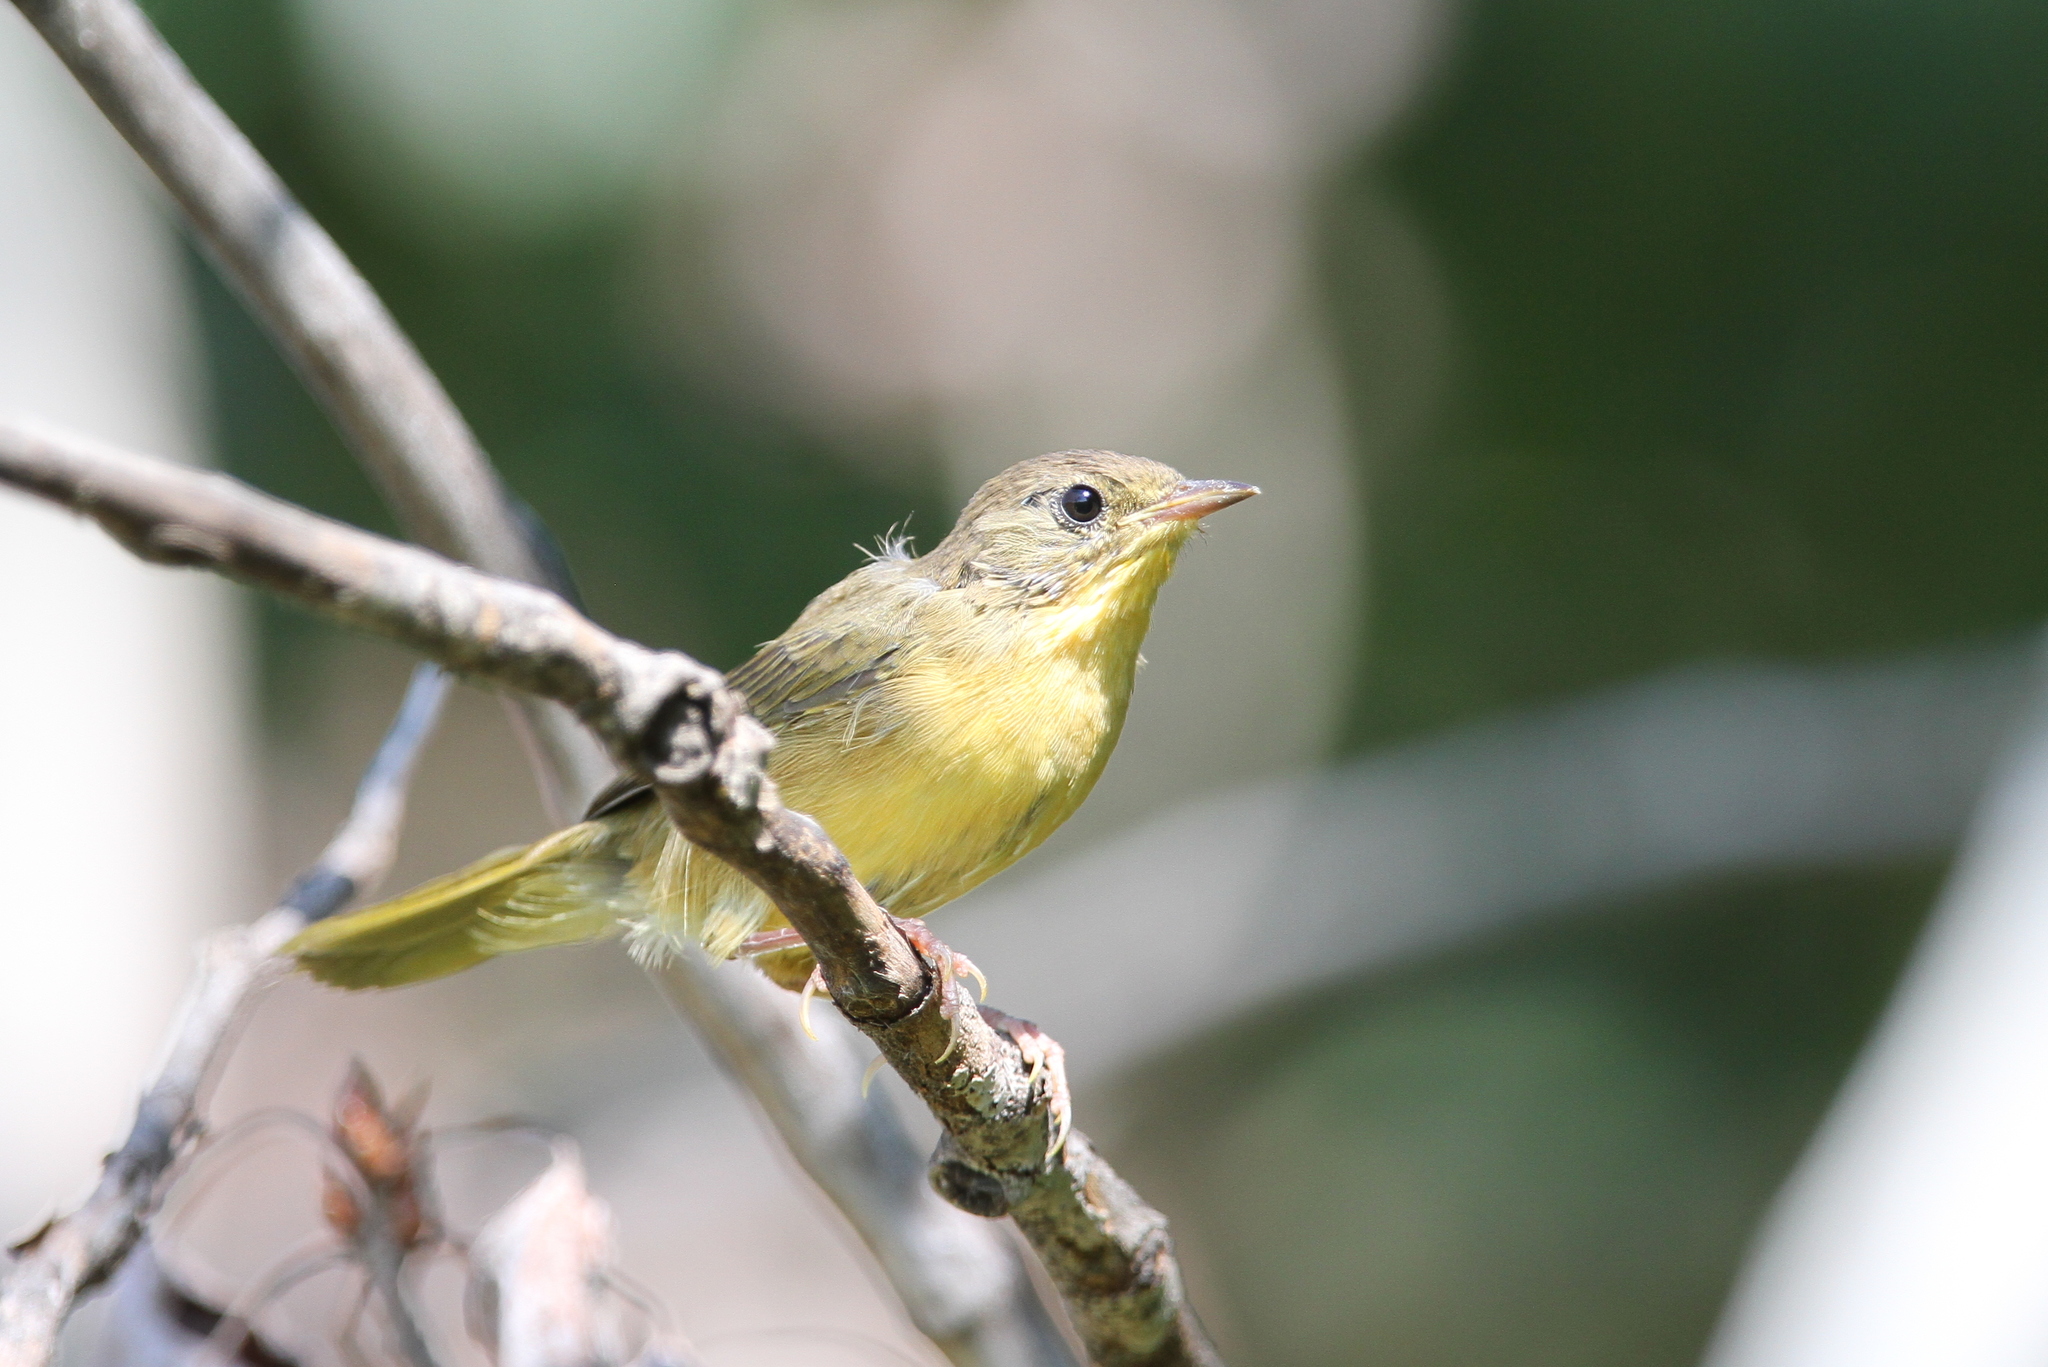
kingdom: Animalia
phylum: Chordata
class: Aves
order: Passeriformes
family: Parulidae
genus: Geothlypis
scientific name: Geothlypis trichas
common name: Common yellowthroat
